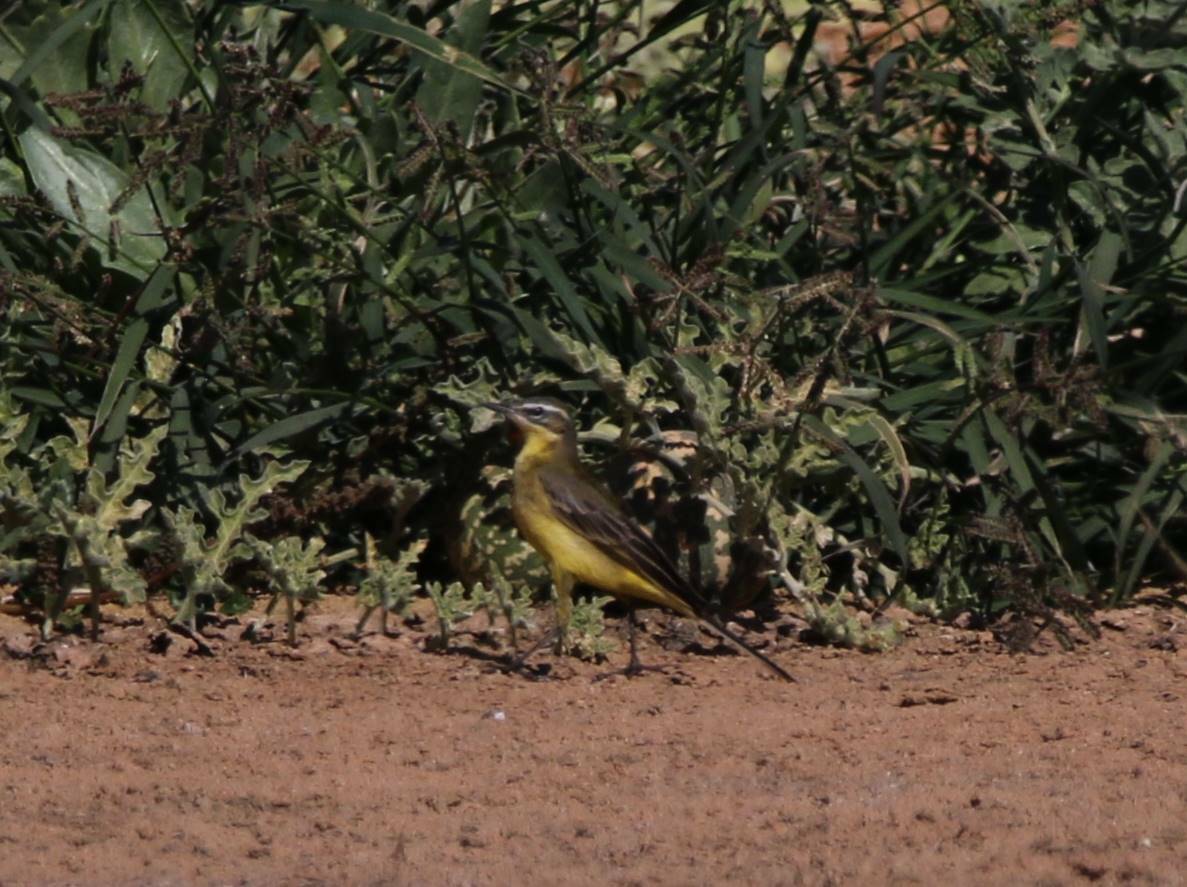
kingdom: Animalia
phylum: Chordata
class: Aves
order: Passeriformes
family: Motacillidae
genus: Motacilla
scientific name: Motacilla flava
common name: Western yellow wagtail
